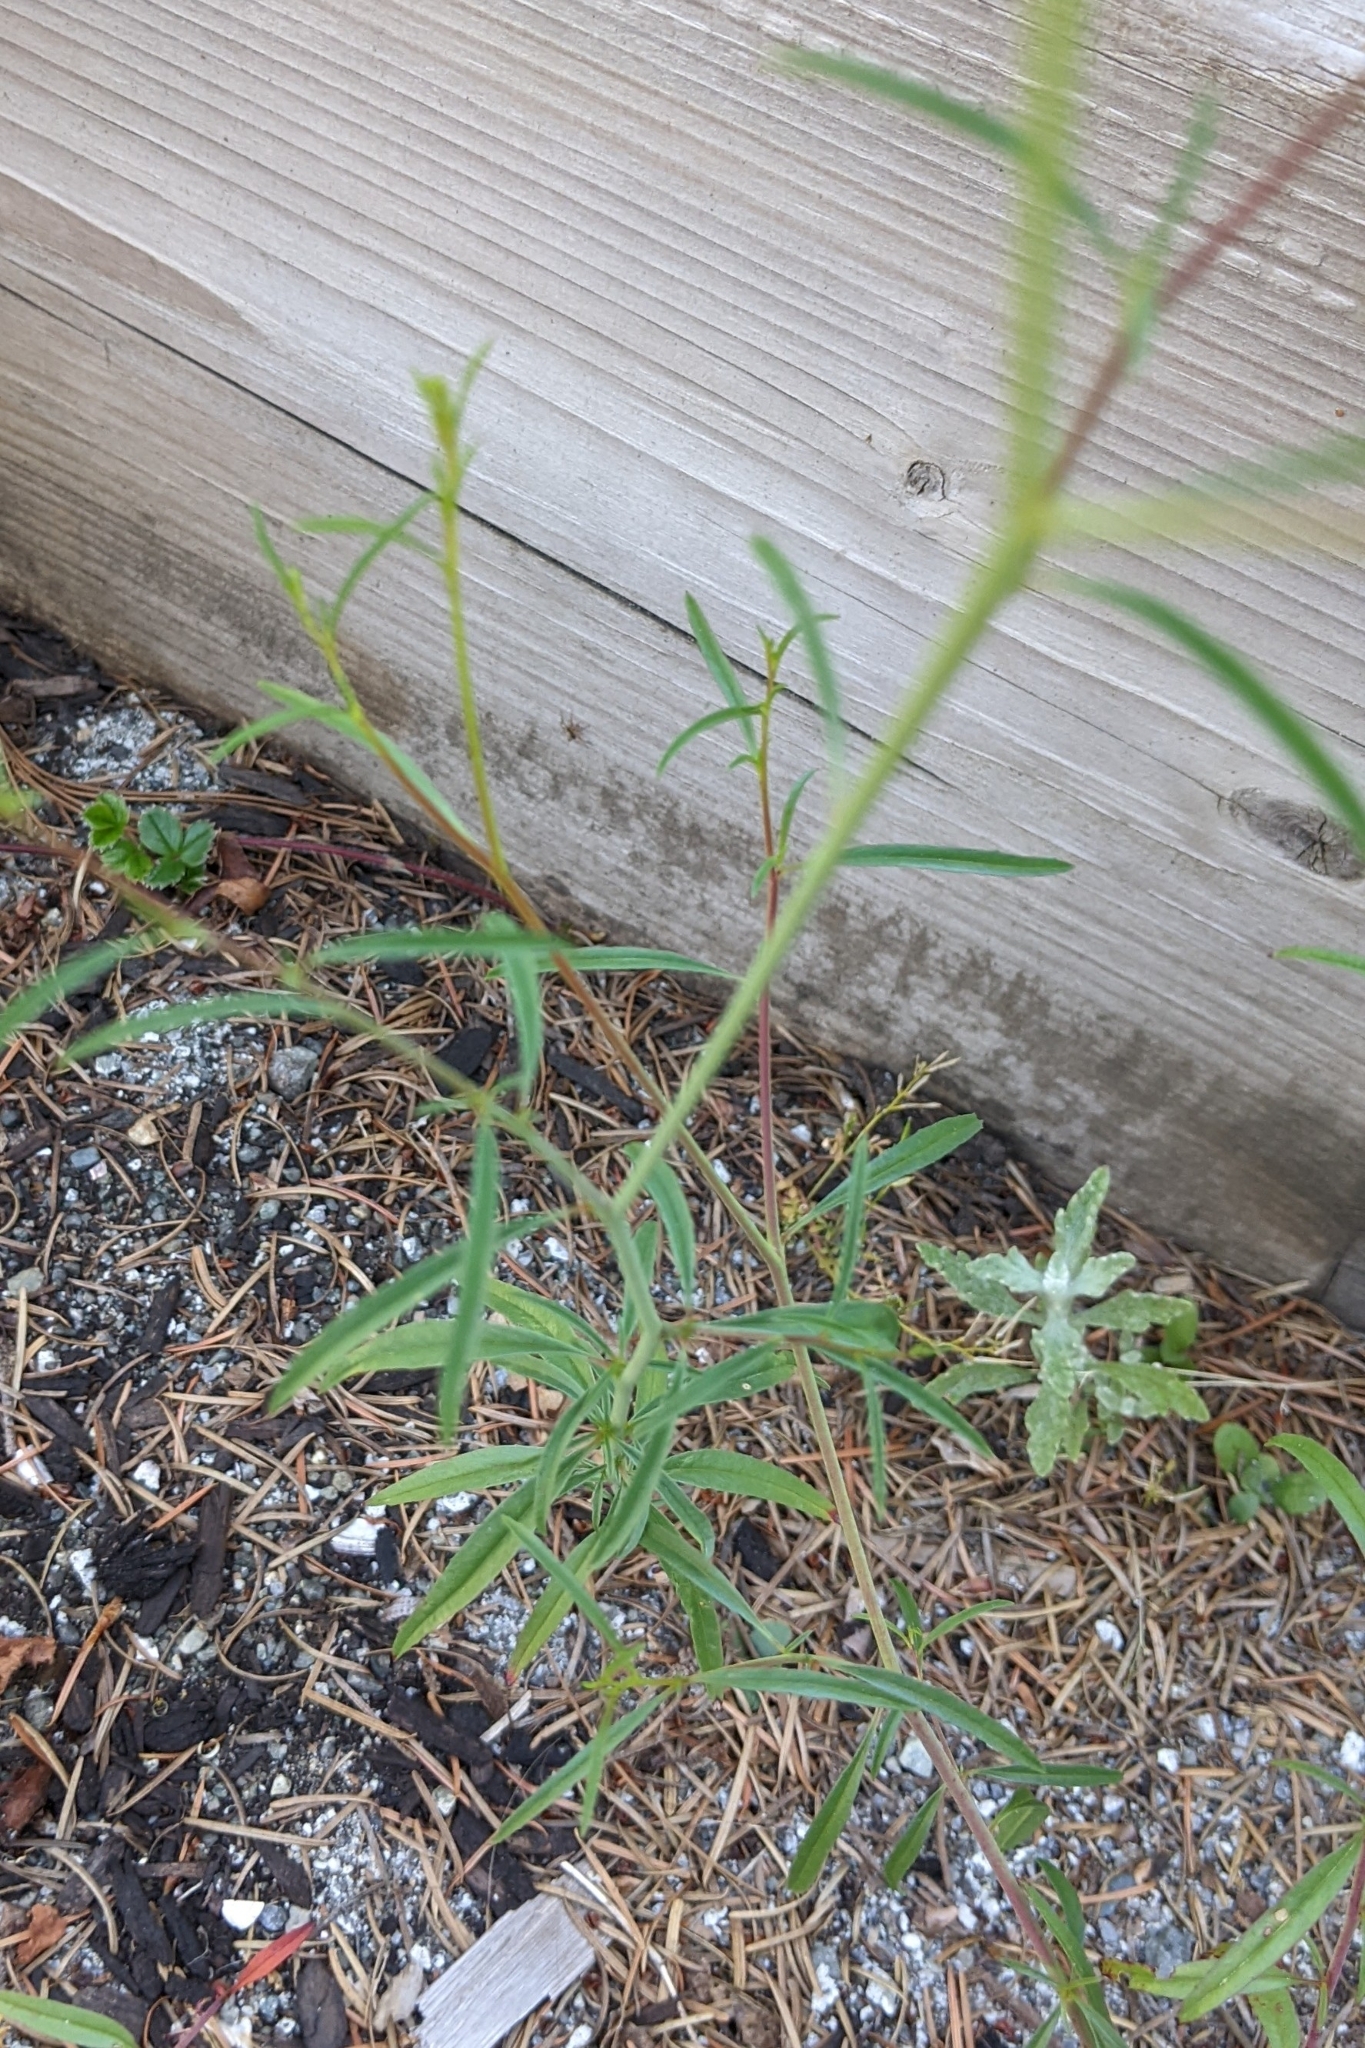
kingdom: Plantae
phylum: Tracheophyta
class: Magnoliopsida
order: Myrtales
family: Onagraceae
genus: Epilobium
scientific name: Epilobium brachycarpum
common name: Annual willowherb
